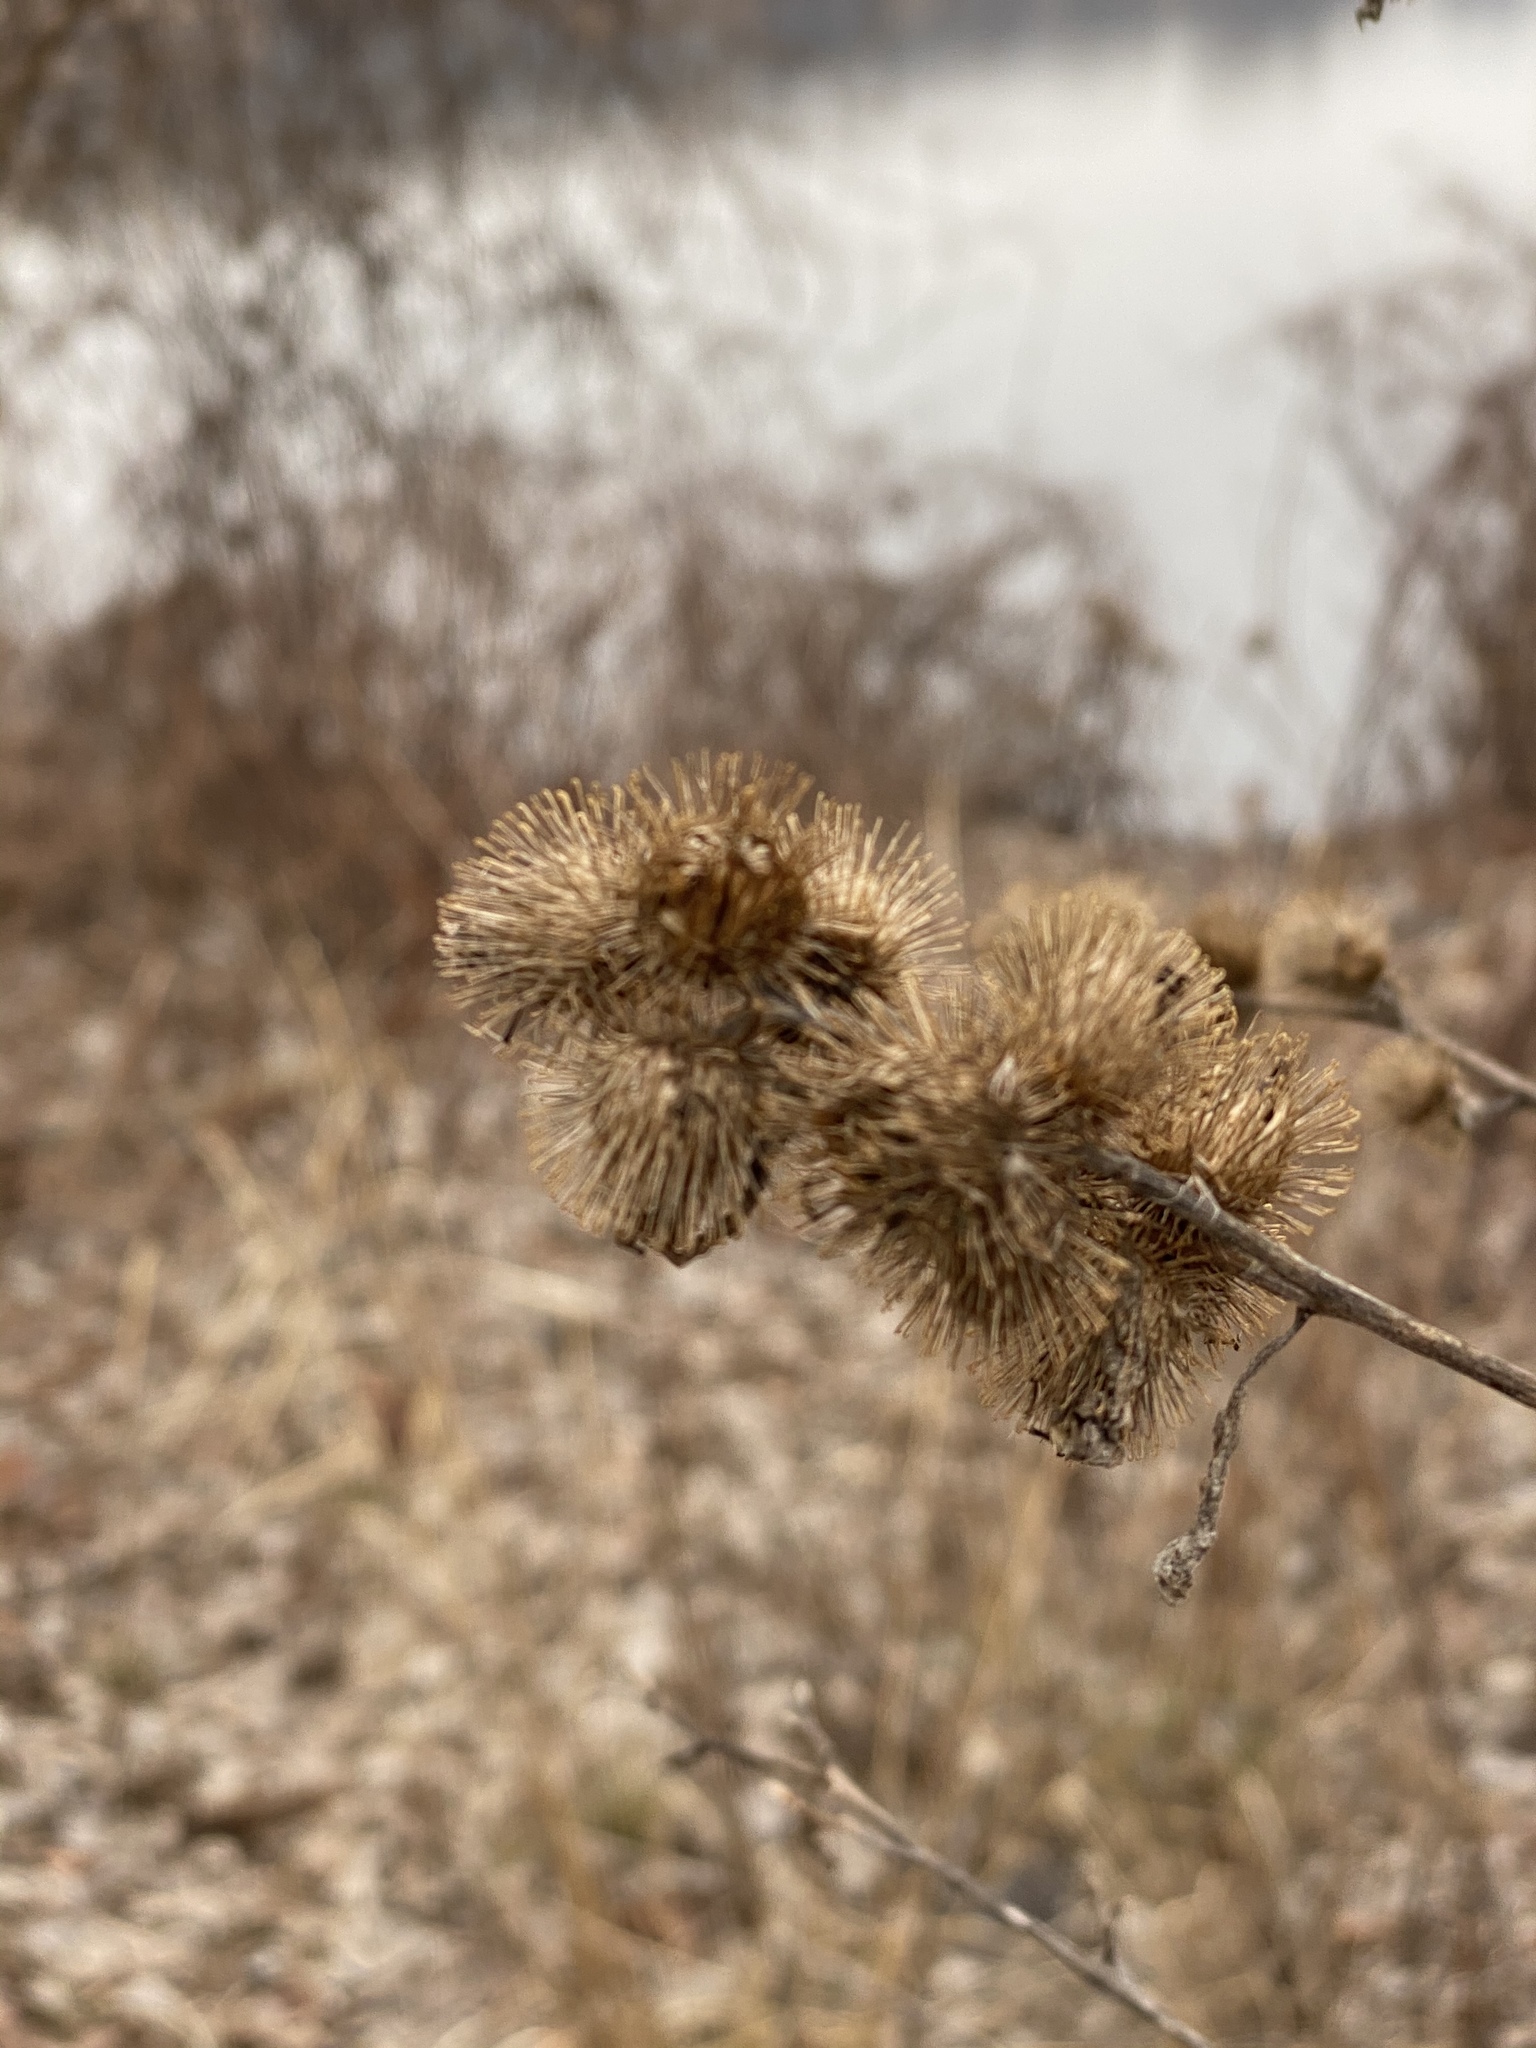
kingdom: Plantae
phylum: Tracheophyta
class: Magnoliopsida
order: Asterales
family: Asteraceae
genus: Arctium
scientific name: Arctium minus
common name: Lesser burdock
